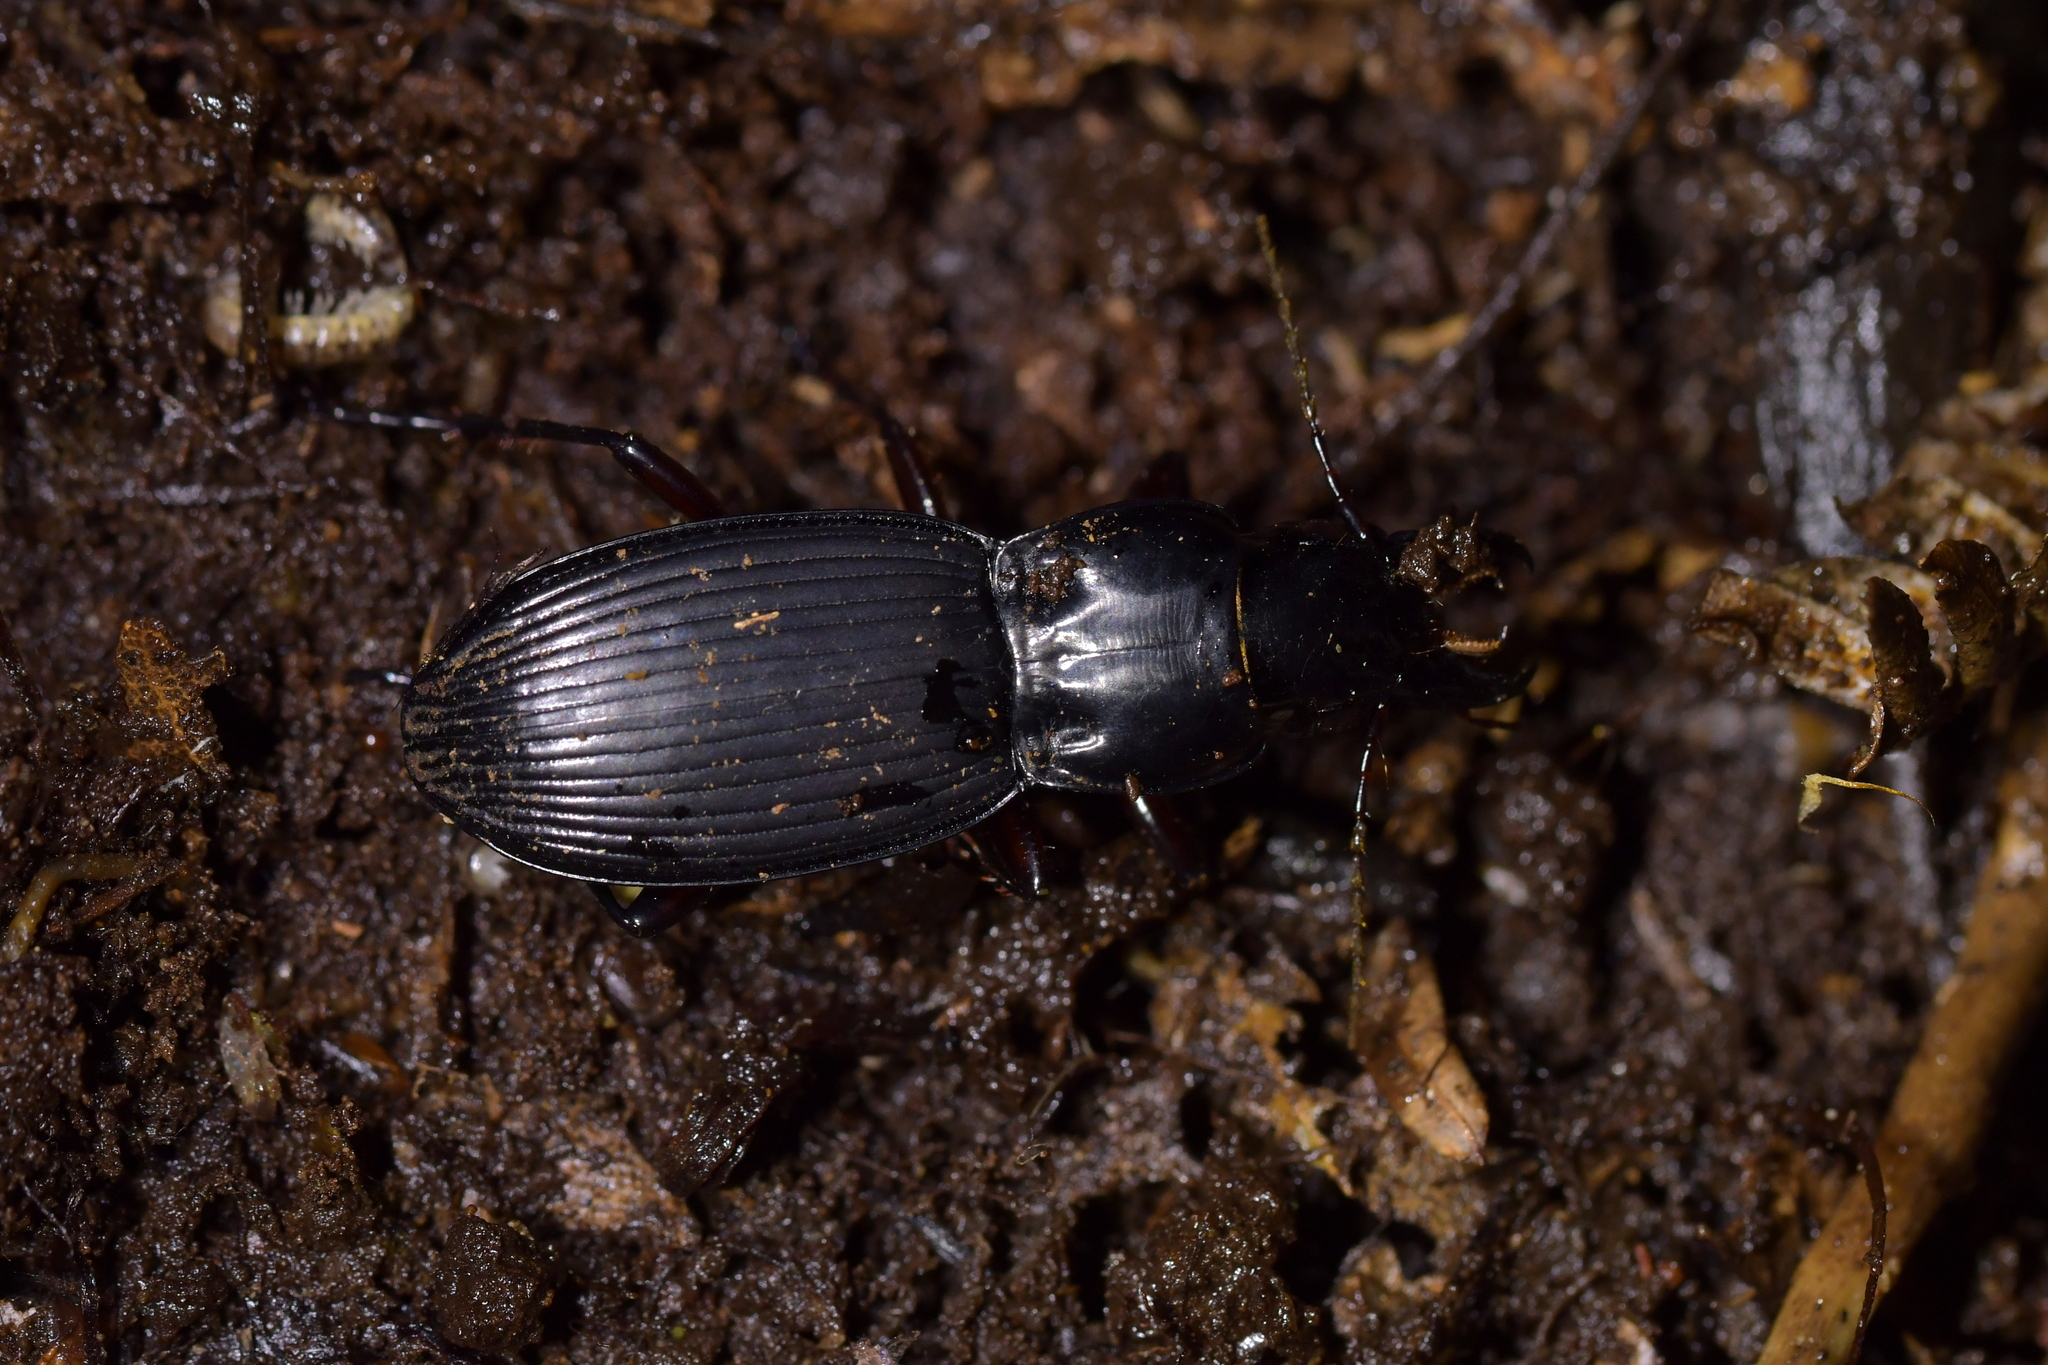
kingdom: Animalia
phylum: Arthropoda
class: Insecta
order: Coleoptera
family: Carabidae
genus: Plocamostethus
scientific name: Plocamostethus planiusculus
